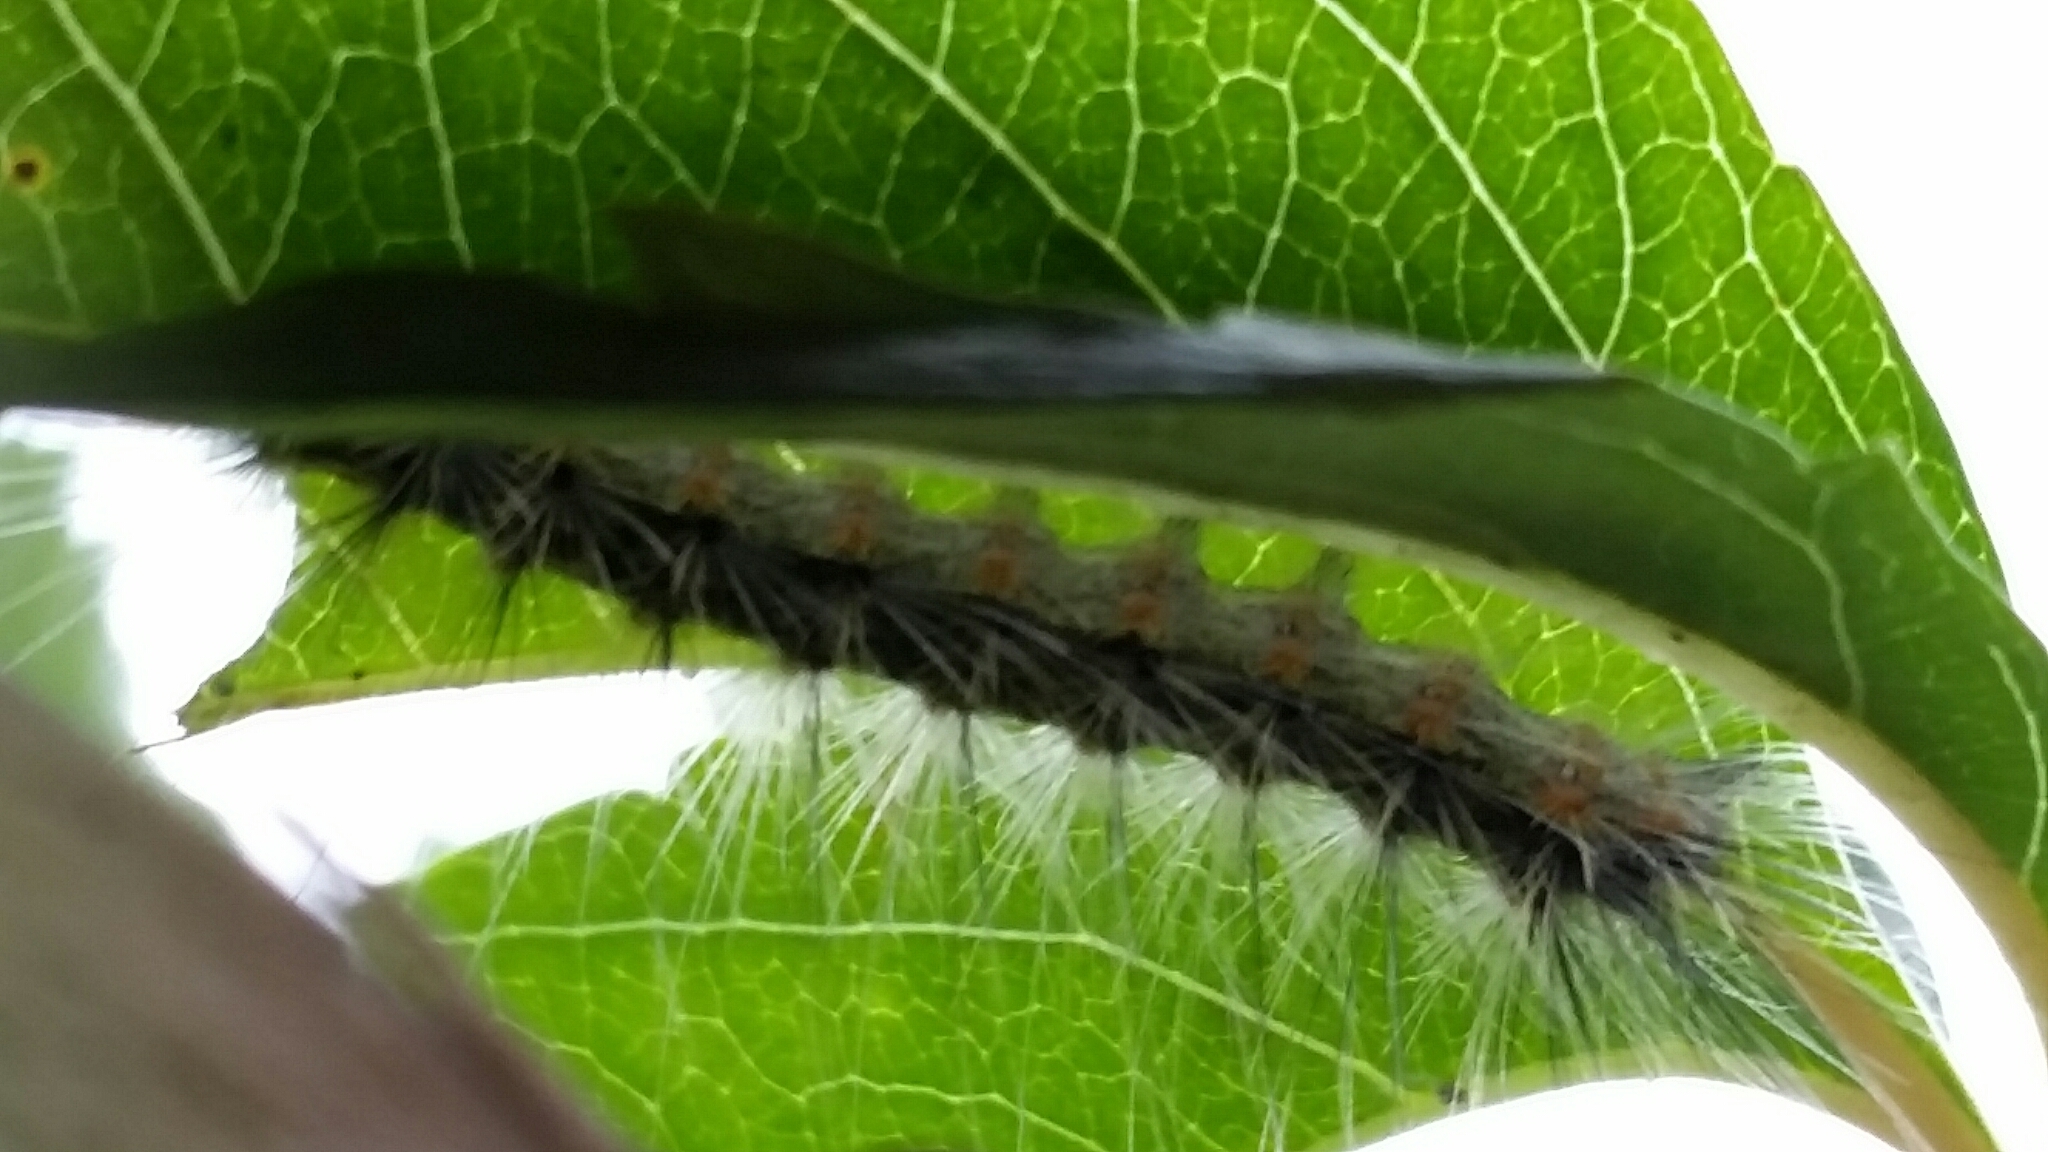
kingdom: Animalia
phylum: Arthropoda
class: Insecta
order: Lepidoptera
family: Erebidae
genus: Hyphantria
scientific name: Hyphantria cunea
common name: American white moth
